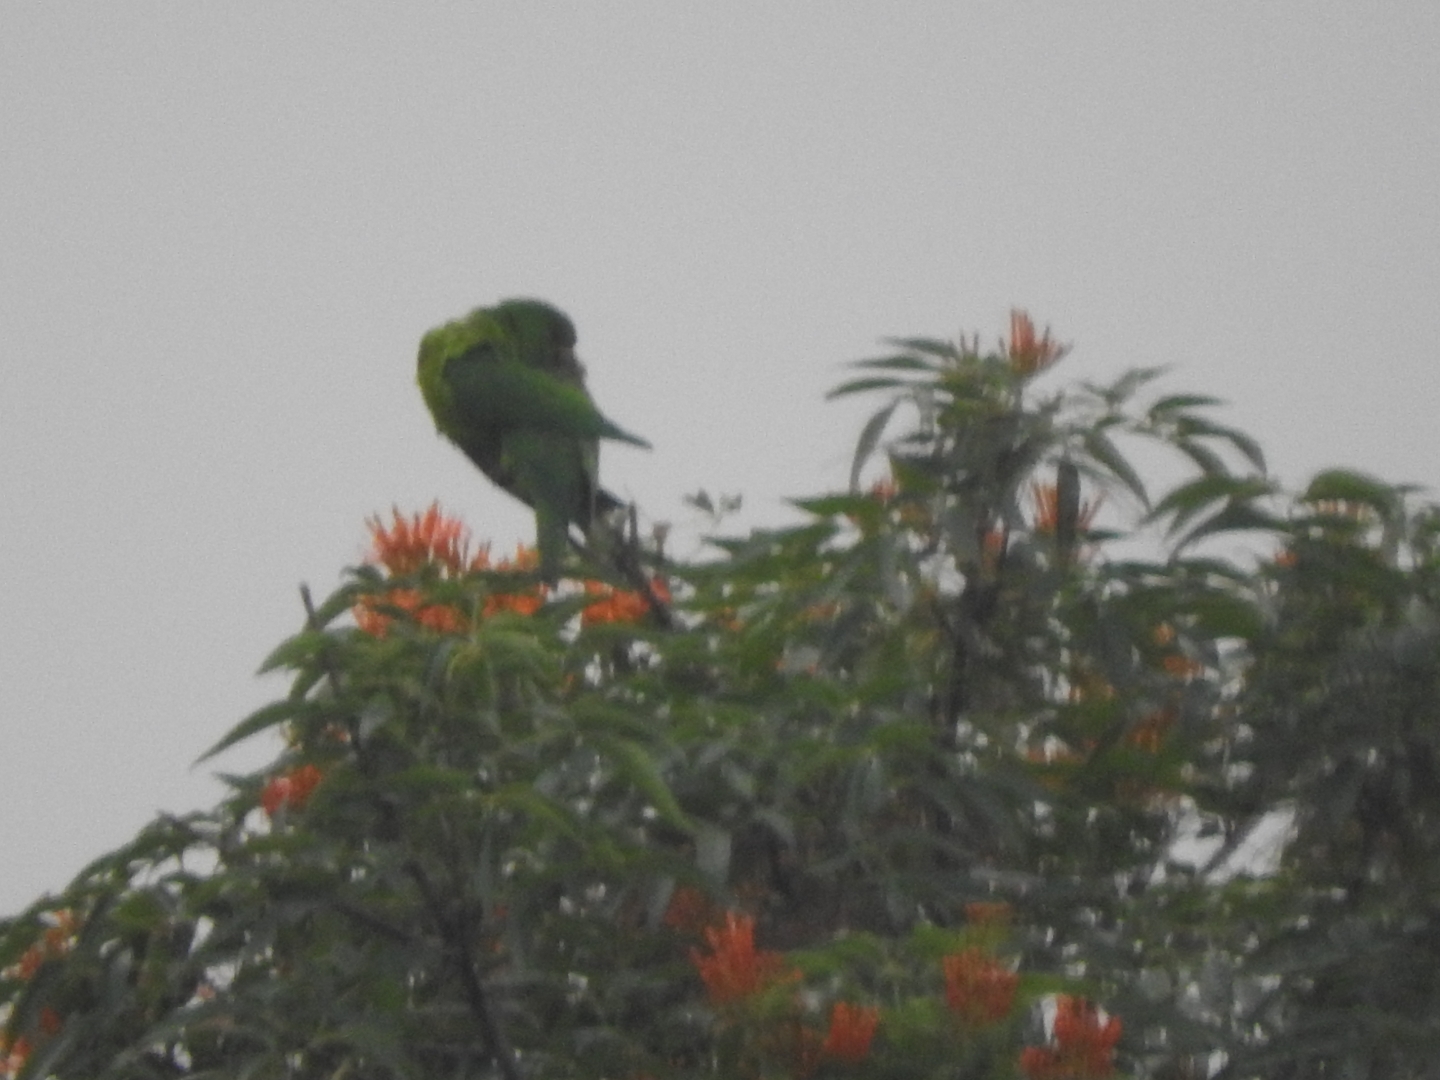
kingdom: Animalia
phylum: Chordata
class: Aves
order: Psittaciformes
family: Psittacidae
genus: Aratinga
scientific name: Aratinga holochlora
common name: Green parakeet
